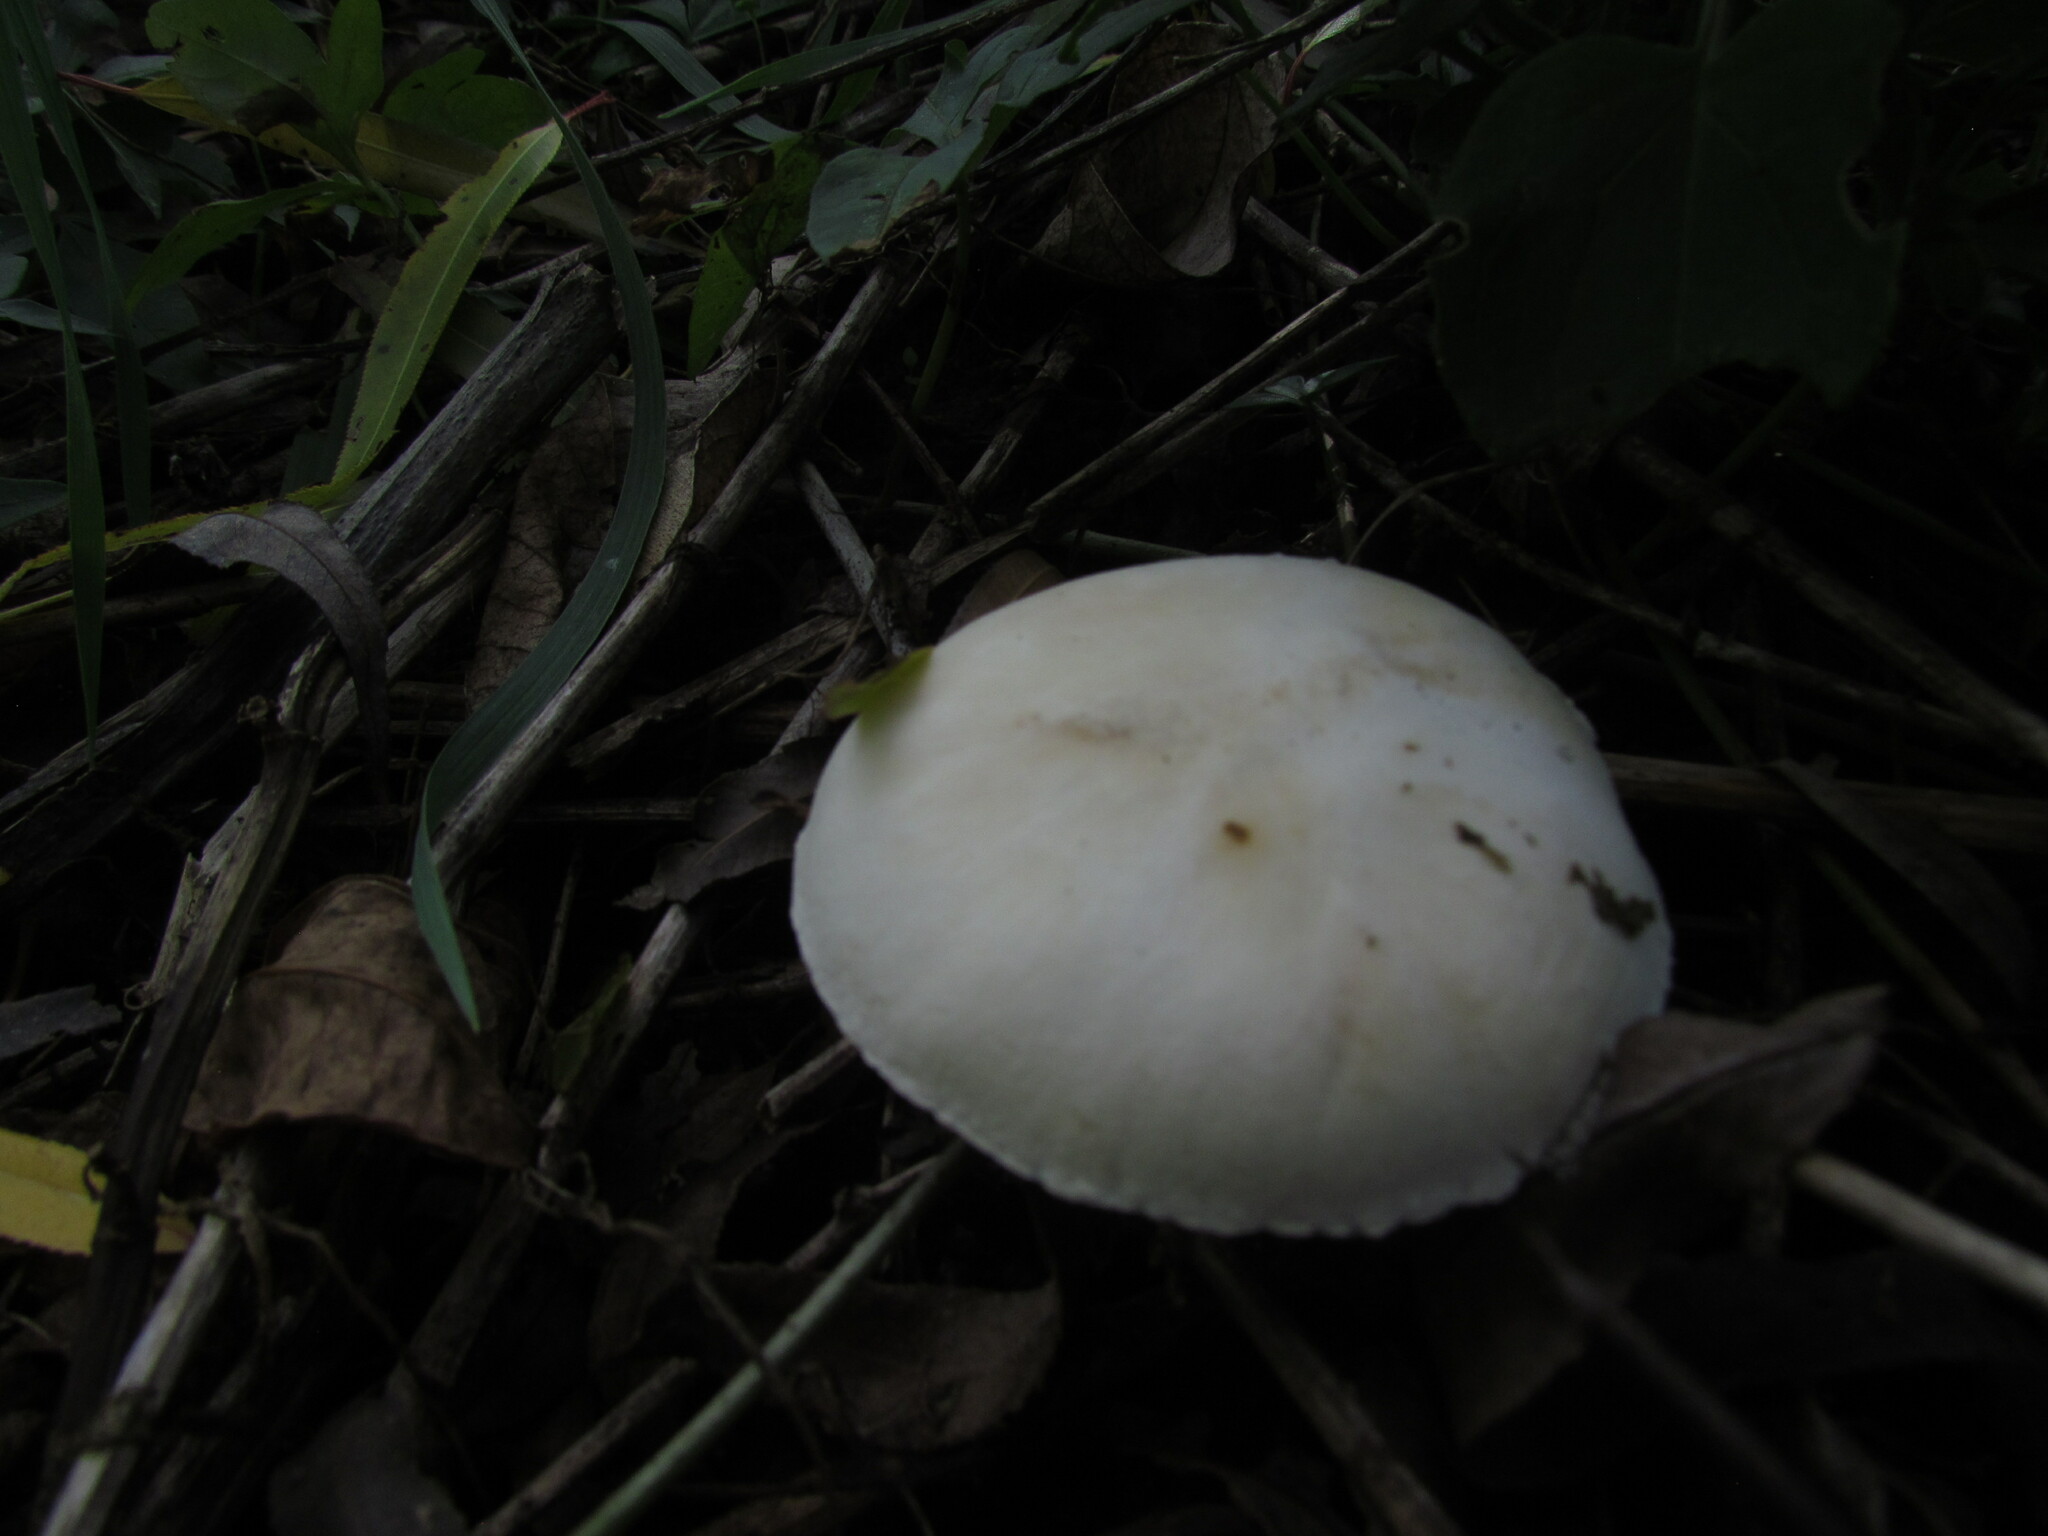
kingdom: Fungi
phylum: Basidiomycota
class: Agaricomycetes
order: Agaricales
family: Agaricaceae
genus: Leucoagaricus
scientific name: Leucoagaricus leucothites
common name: White dapperling
